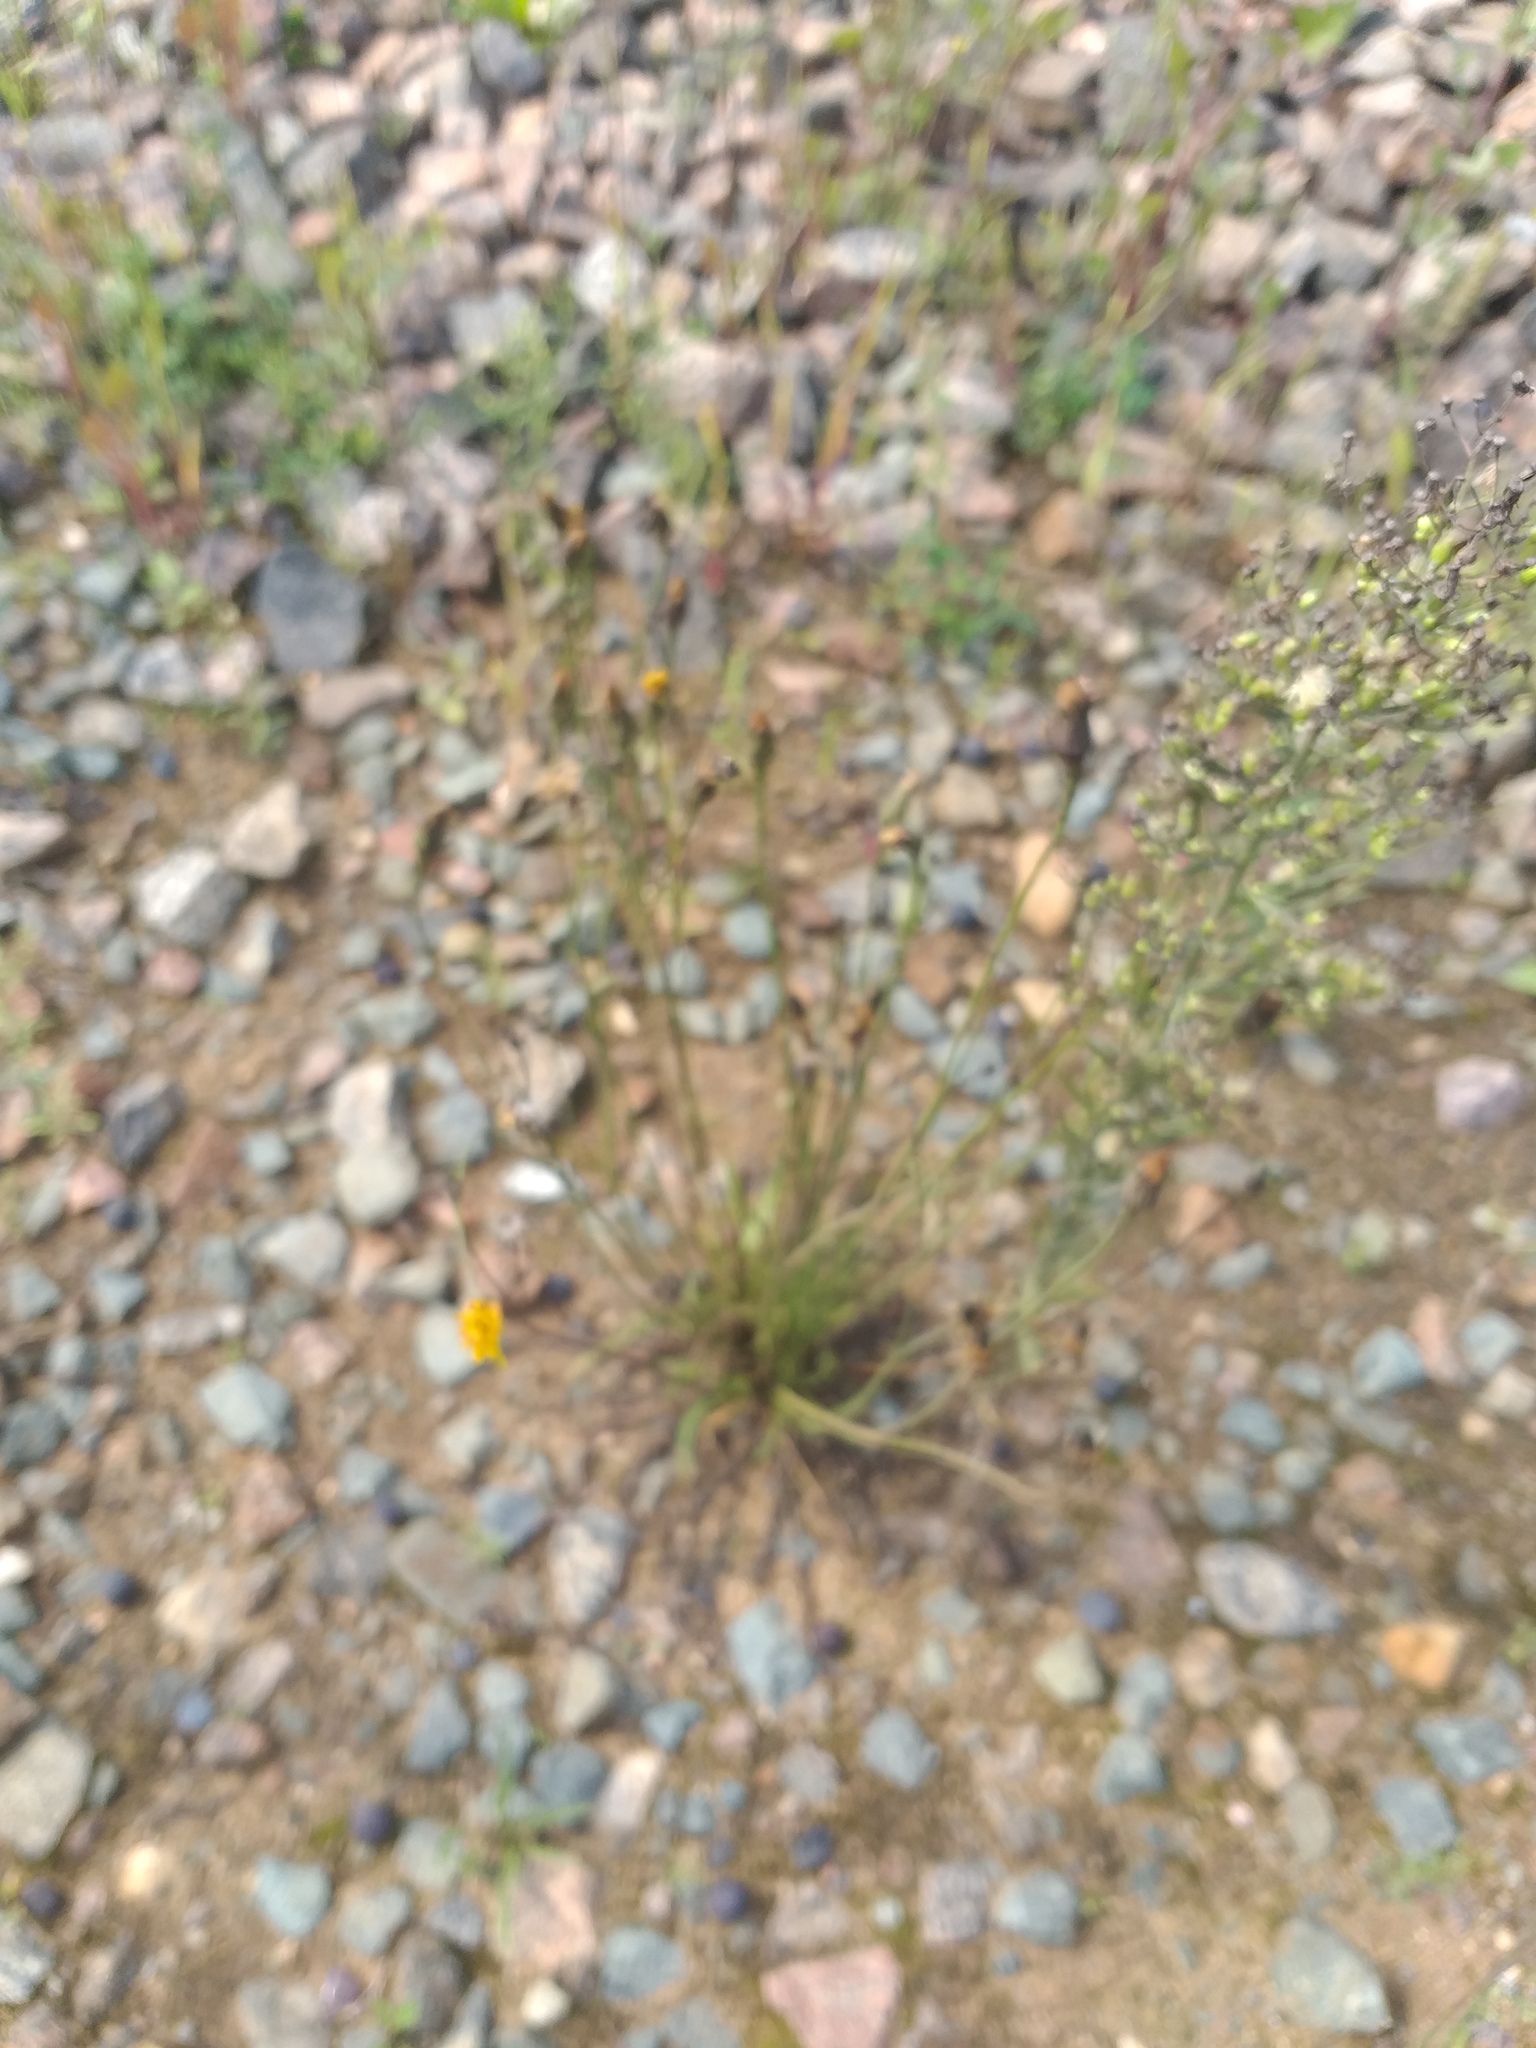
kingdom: Plantae
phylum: Tracheophyta
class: Magnoliopsida
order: Asterales
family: Asteraceae
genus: Scorzoneroides
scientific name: Scorzoneroides autumnalis
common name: Autumn hawkbit
